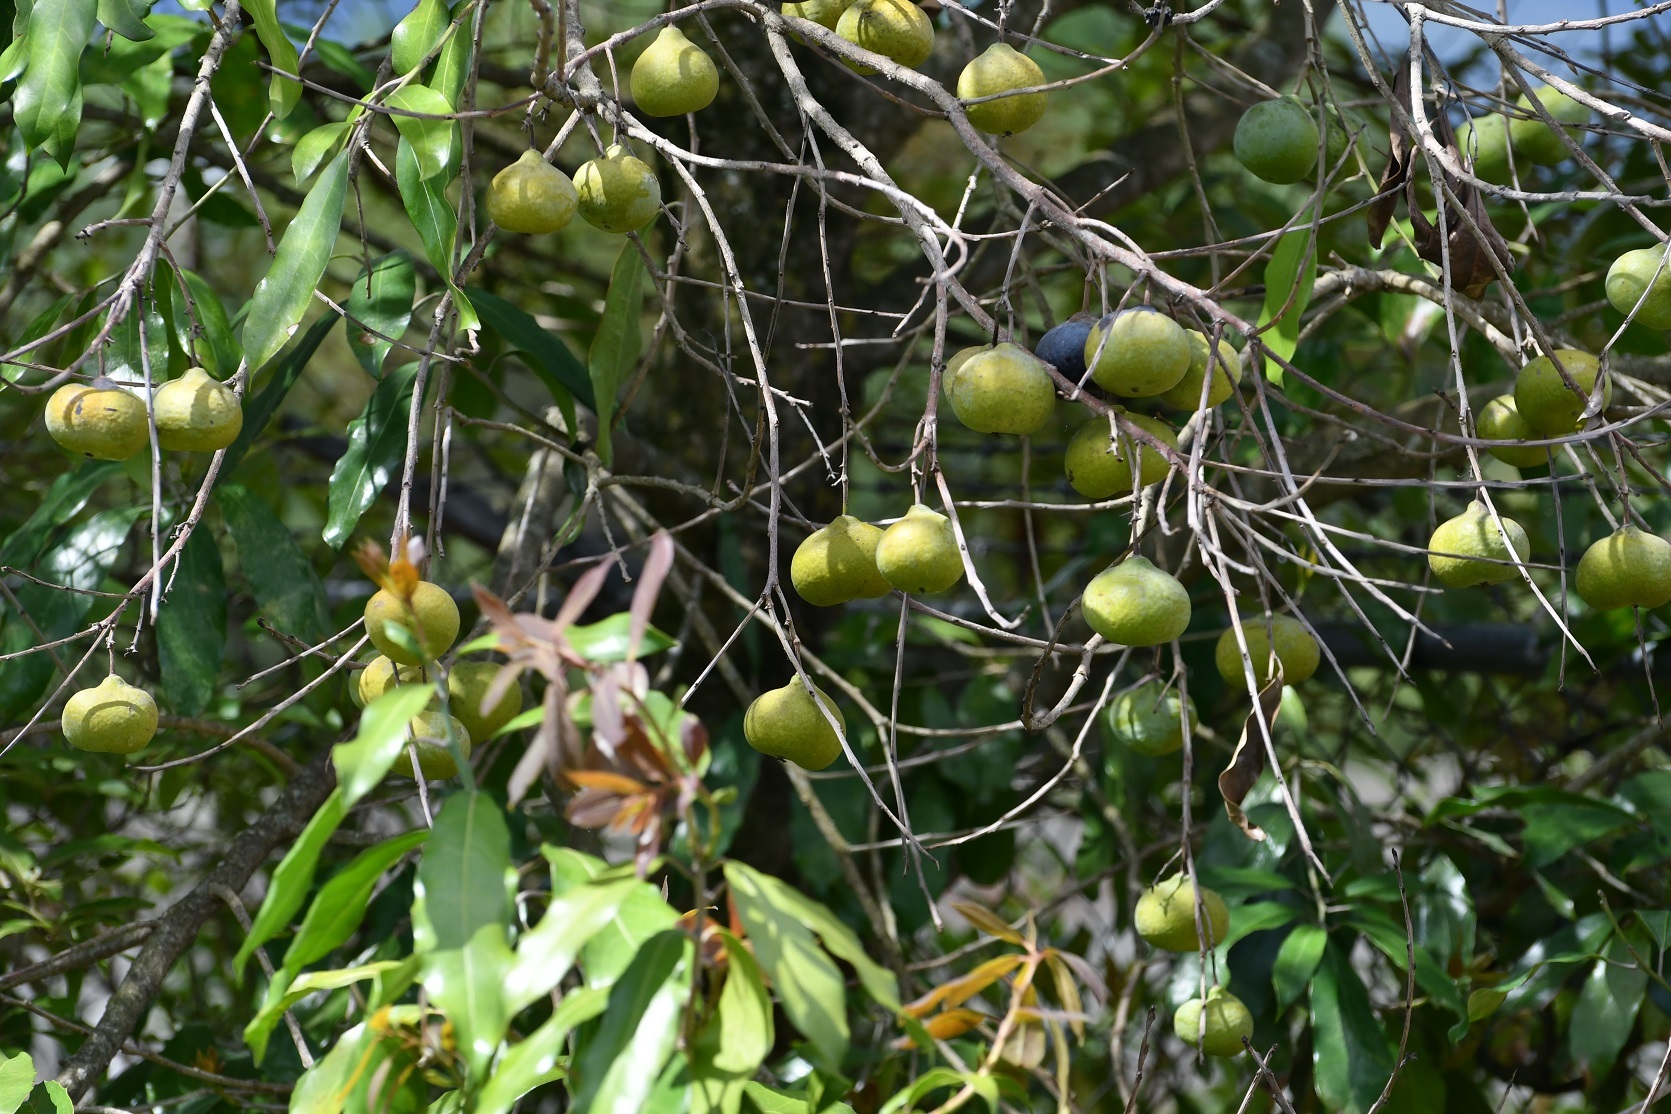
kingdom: Plantae
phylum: Tracheophyta
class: Magnoliopsida
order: Malpighiales
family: Salicaceae
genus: Olmediella
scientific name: Olmediella betschleriana
